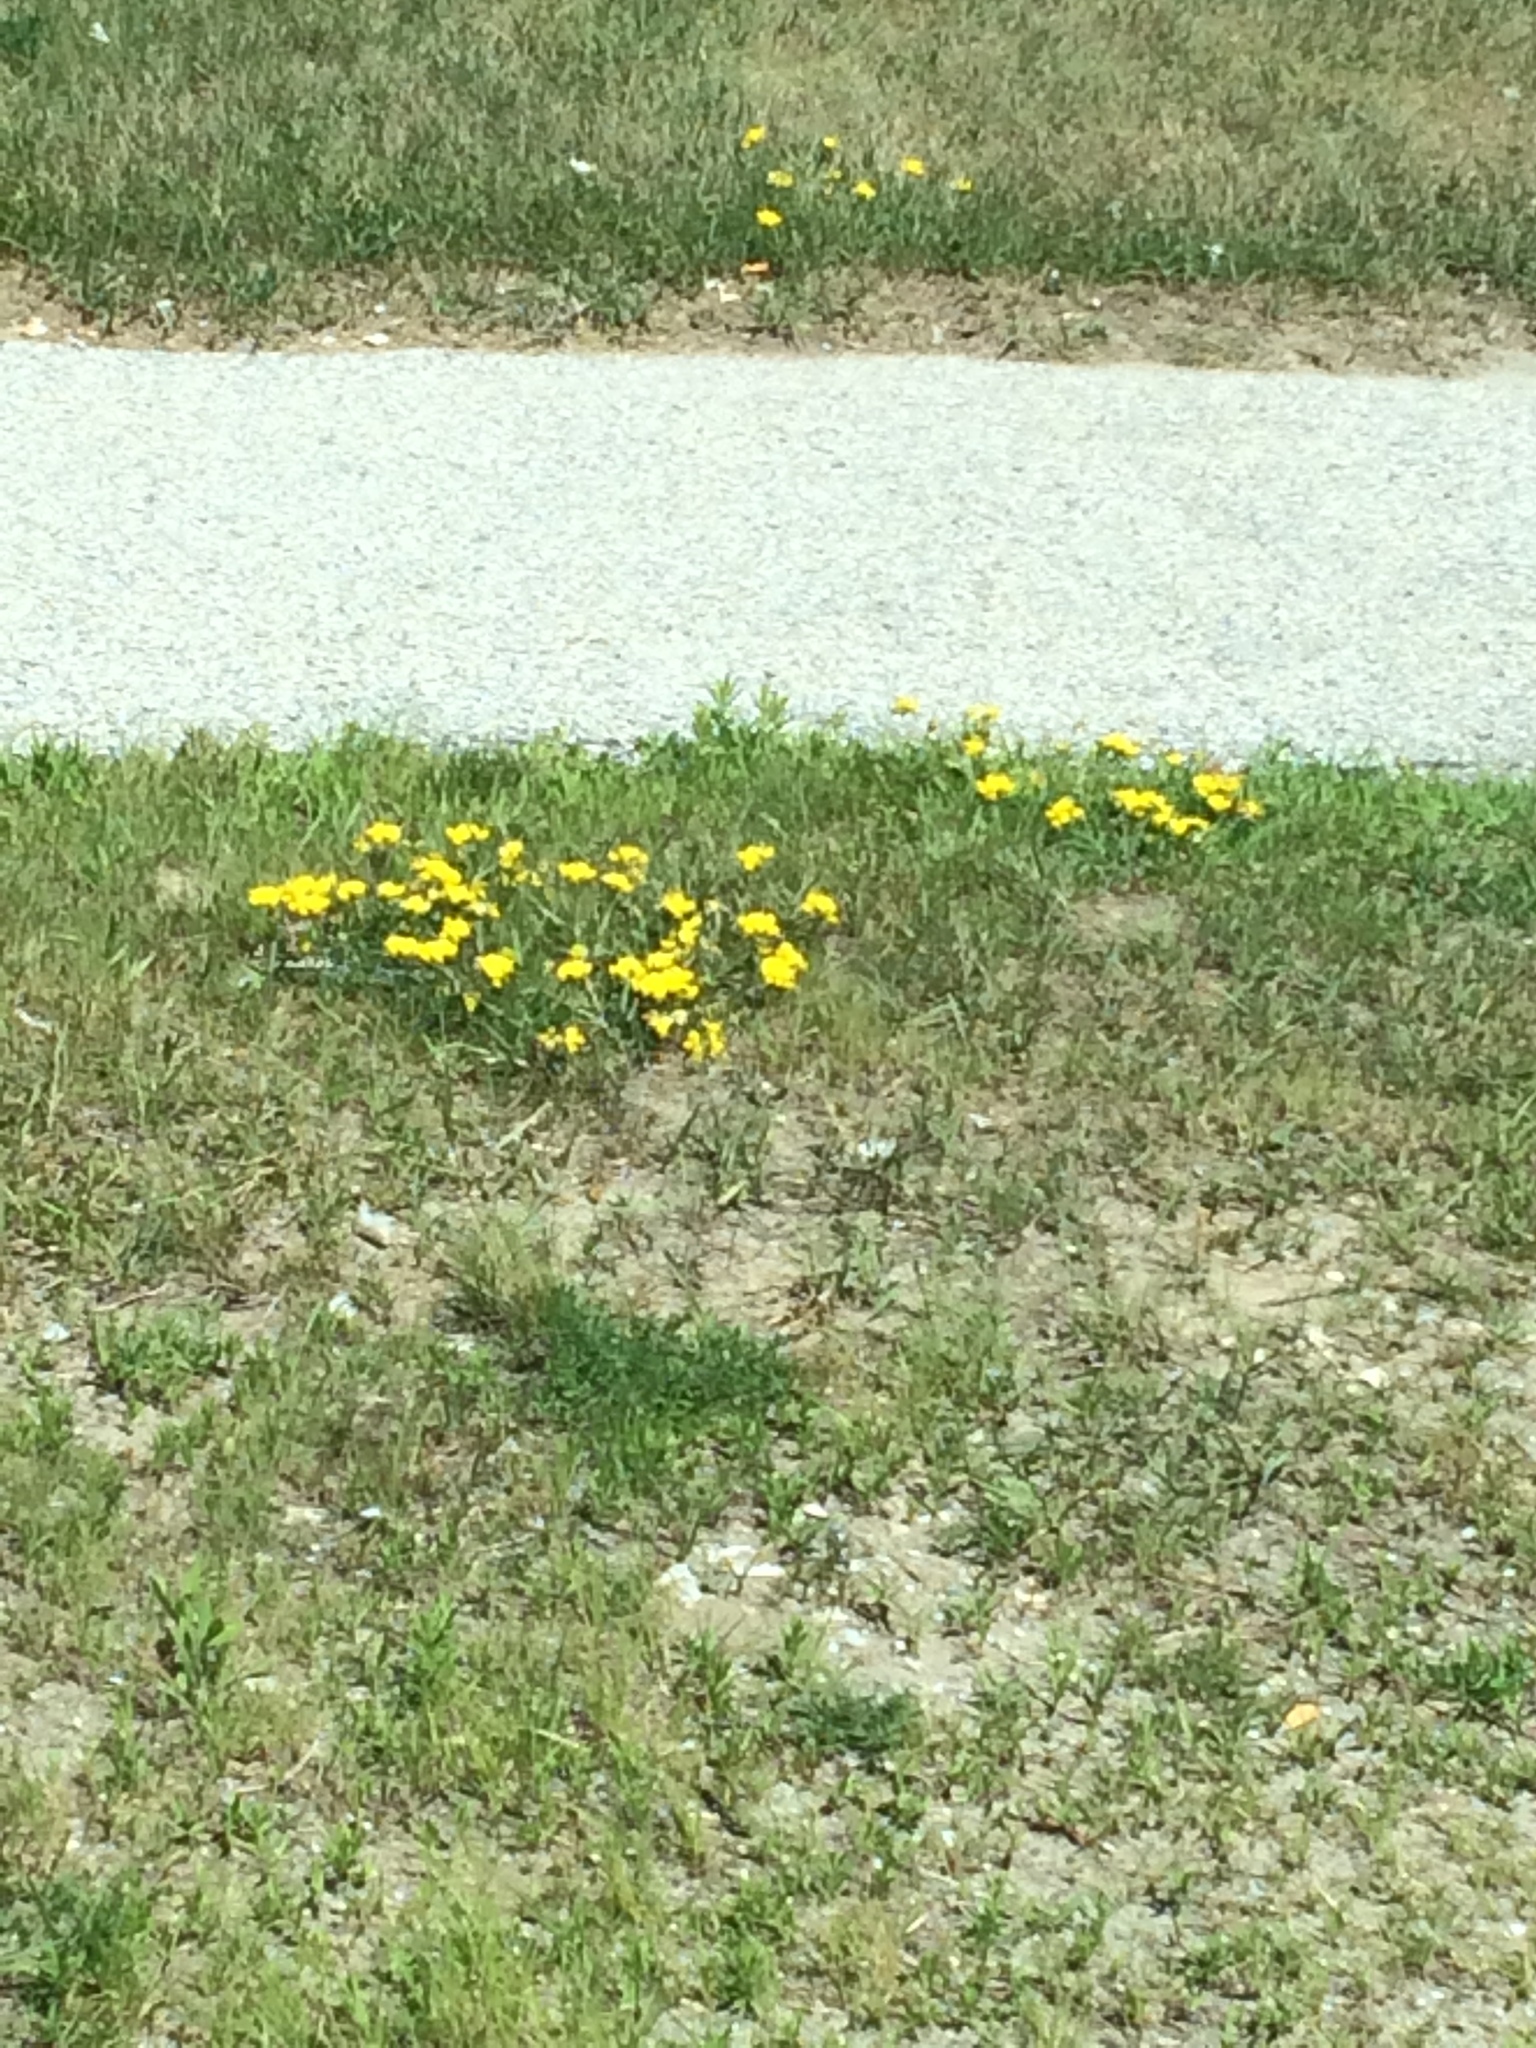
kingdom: Plantae
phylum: Tracheophyta
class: Magnoliopsida
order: Fabales
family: Fabaceae
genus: Lotus
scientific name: Lotus corniculatus
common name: Common bird's-foot-trefoil
